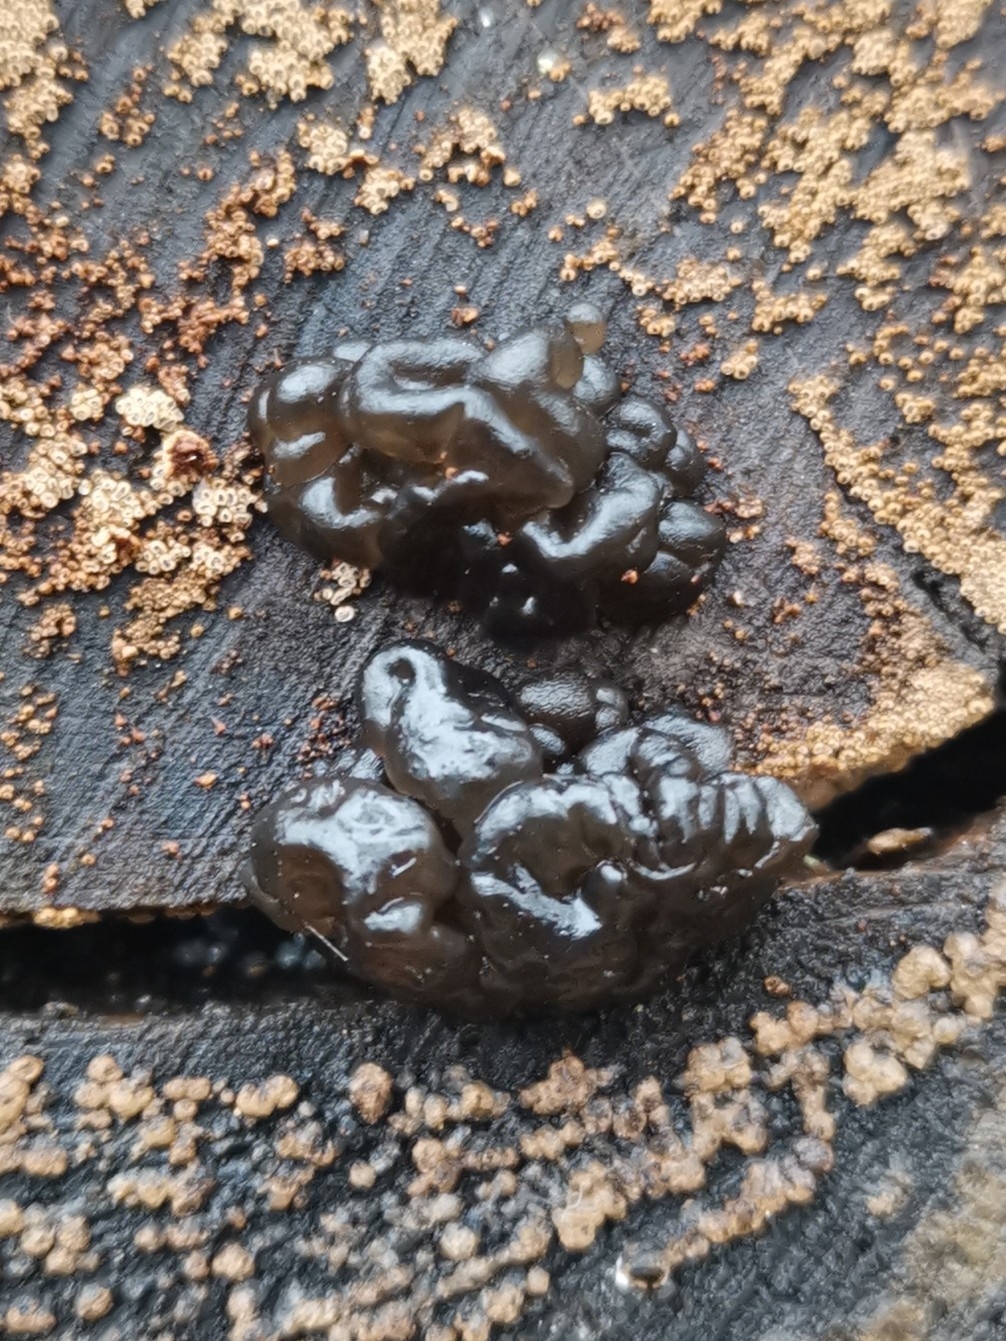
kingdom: Fungi
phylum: Basidiomycota
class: Agaricomycetes
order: Auriculariales
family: Auriculariaceae
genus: Exidia
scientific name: Exidia nigricans
